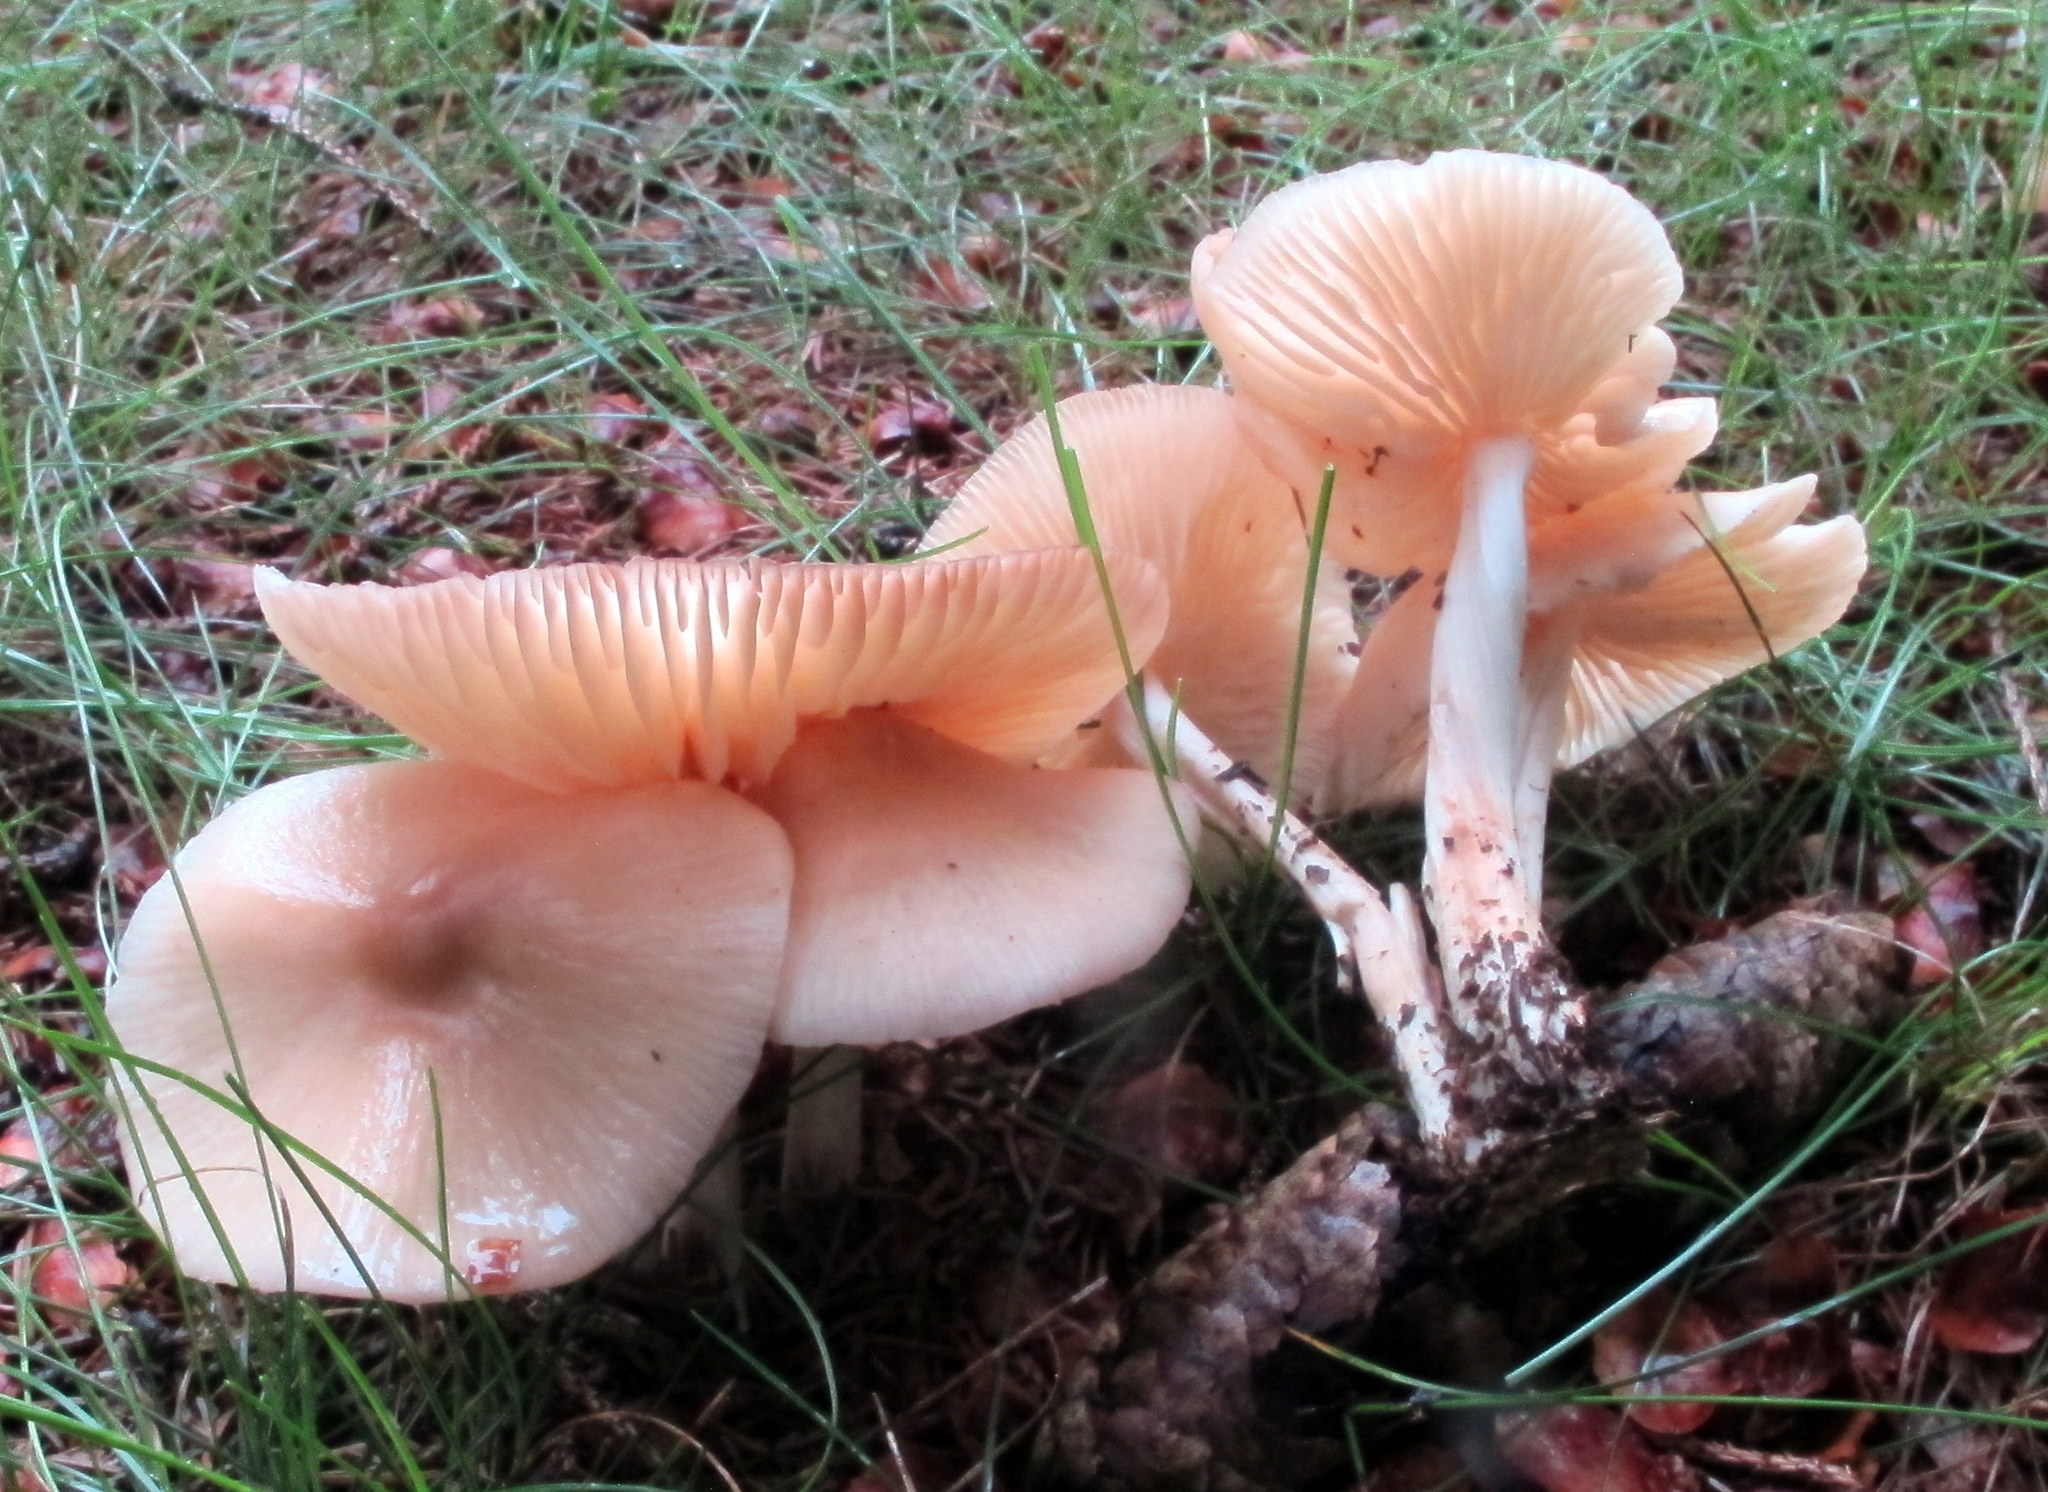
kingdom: Fungi
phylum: Basidiomycota
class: Agaricomycetes
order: Agaricales
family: Marasmiaceae
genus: Marasmius
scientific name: Marasmius nigrodiscus
